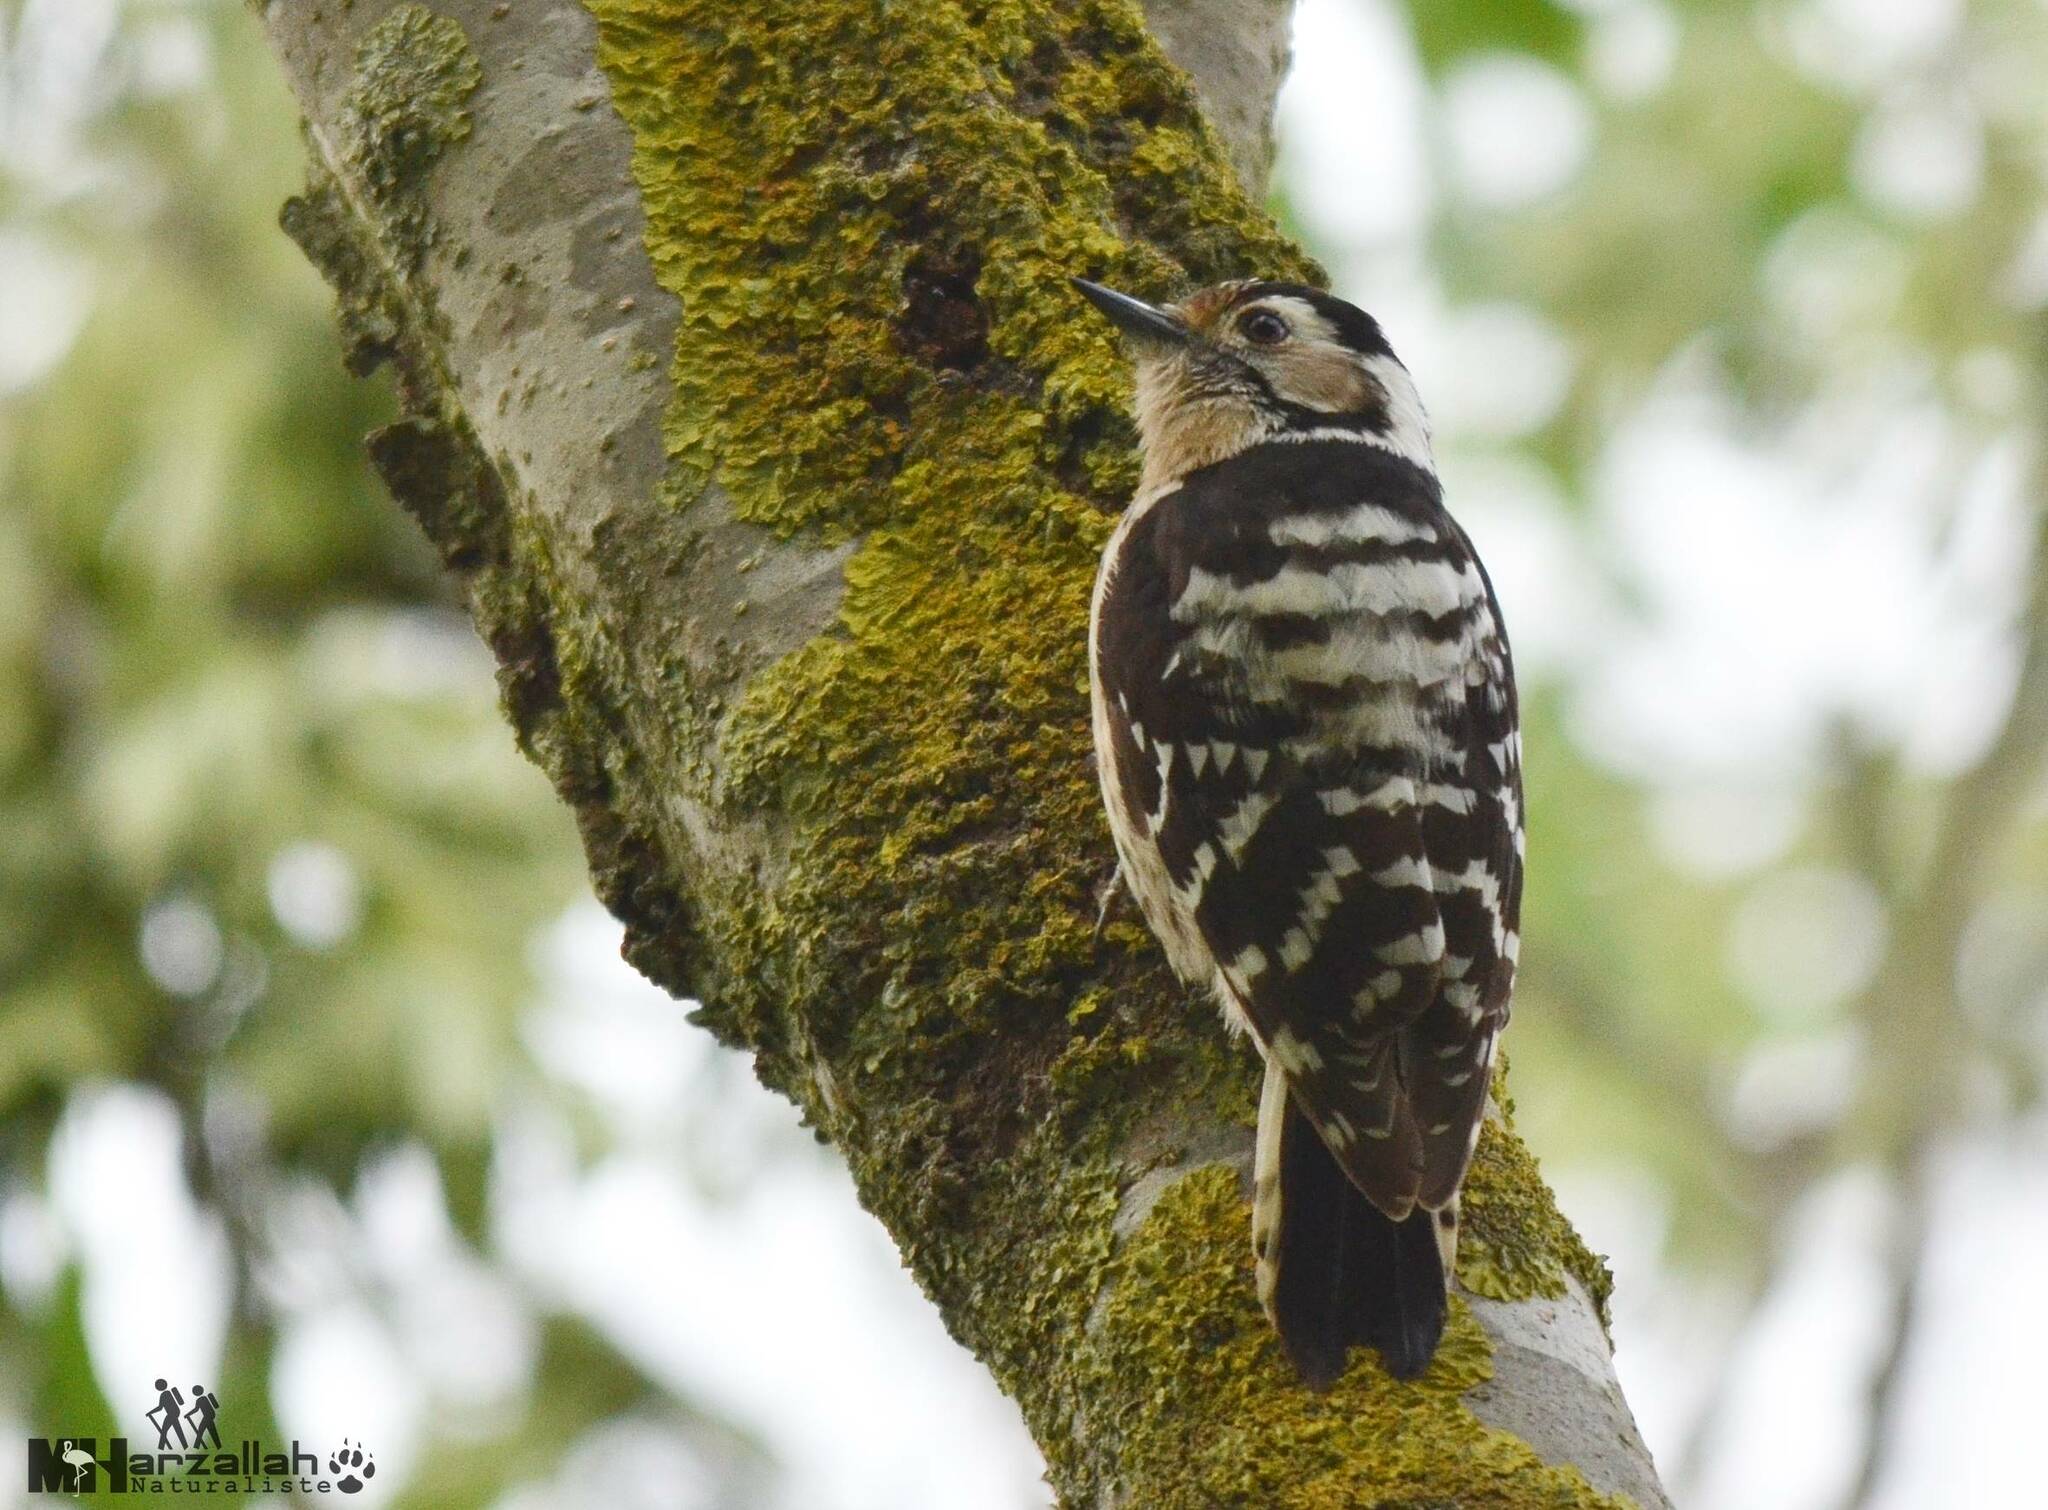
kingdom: Animalia
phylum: Chordata
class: Aves
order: Piciformes
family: Picidae
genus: Dryobates
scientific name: Dryobates minor
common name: Lesser spotted woodpecker
